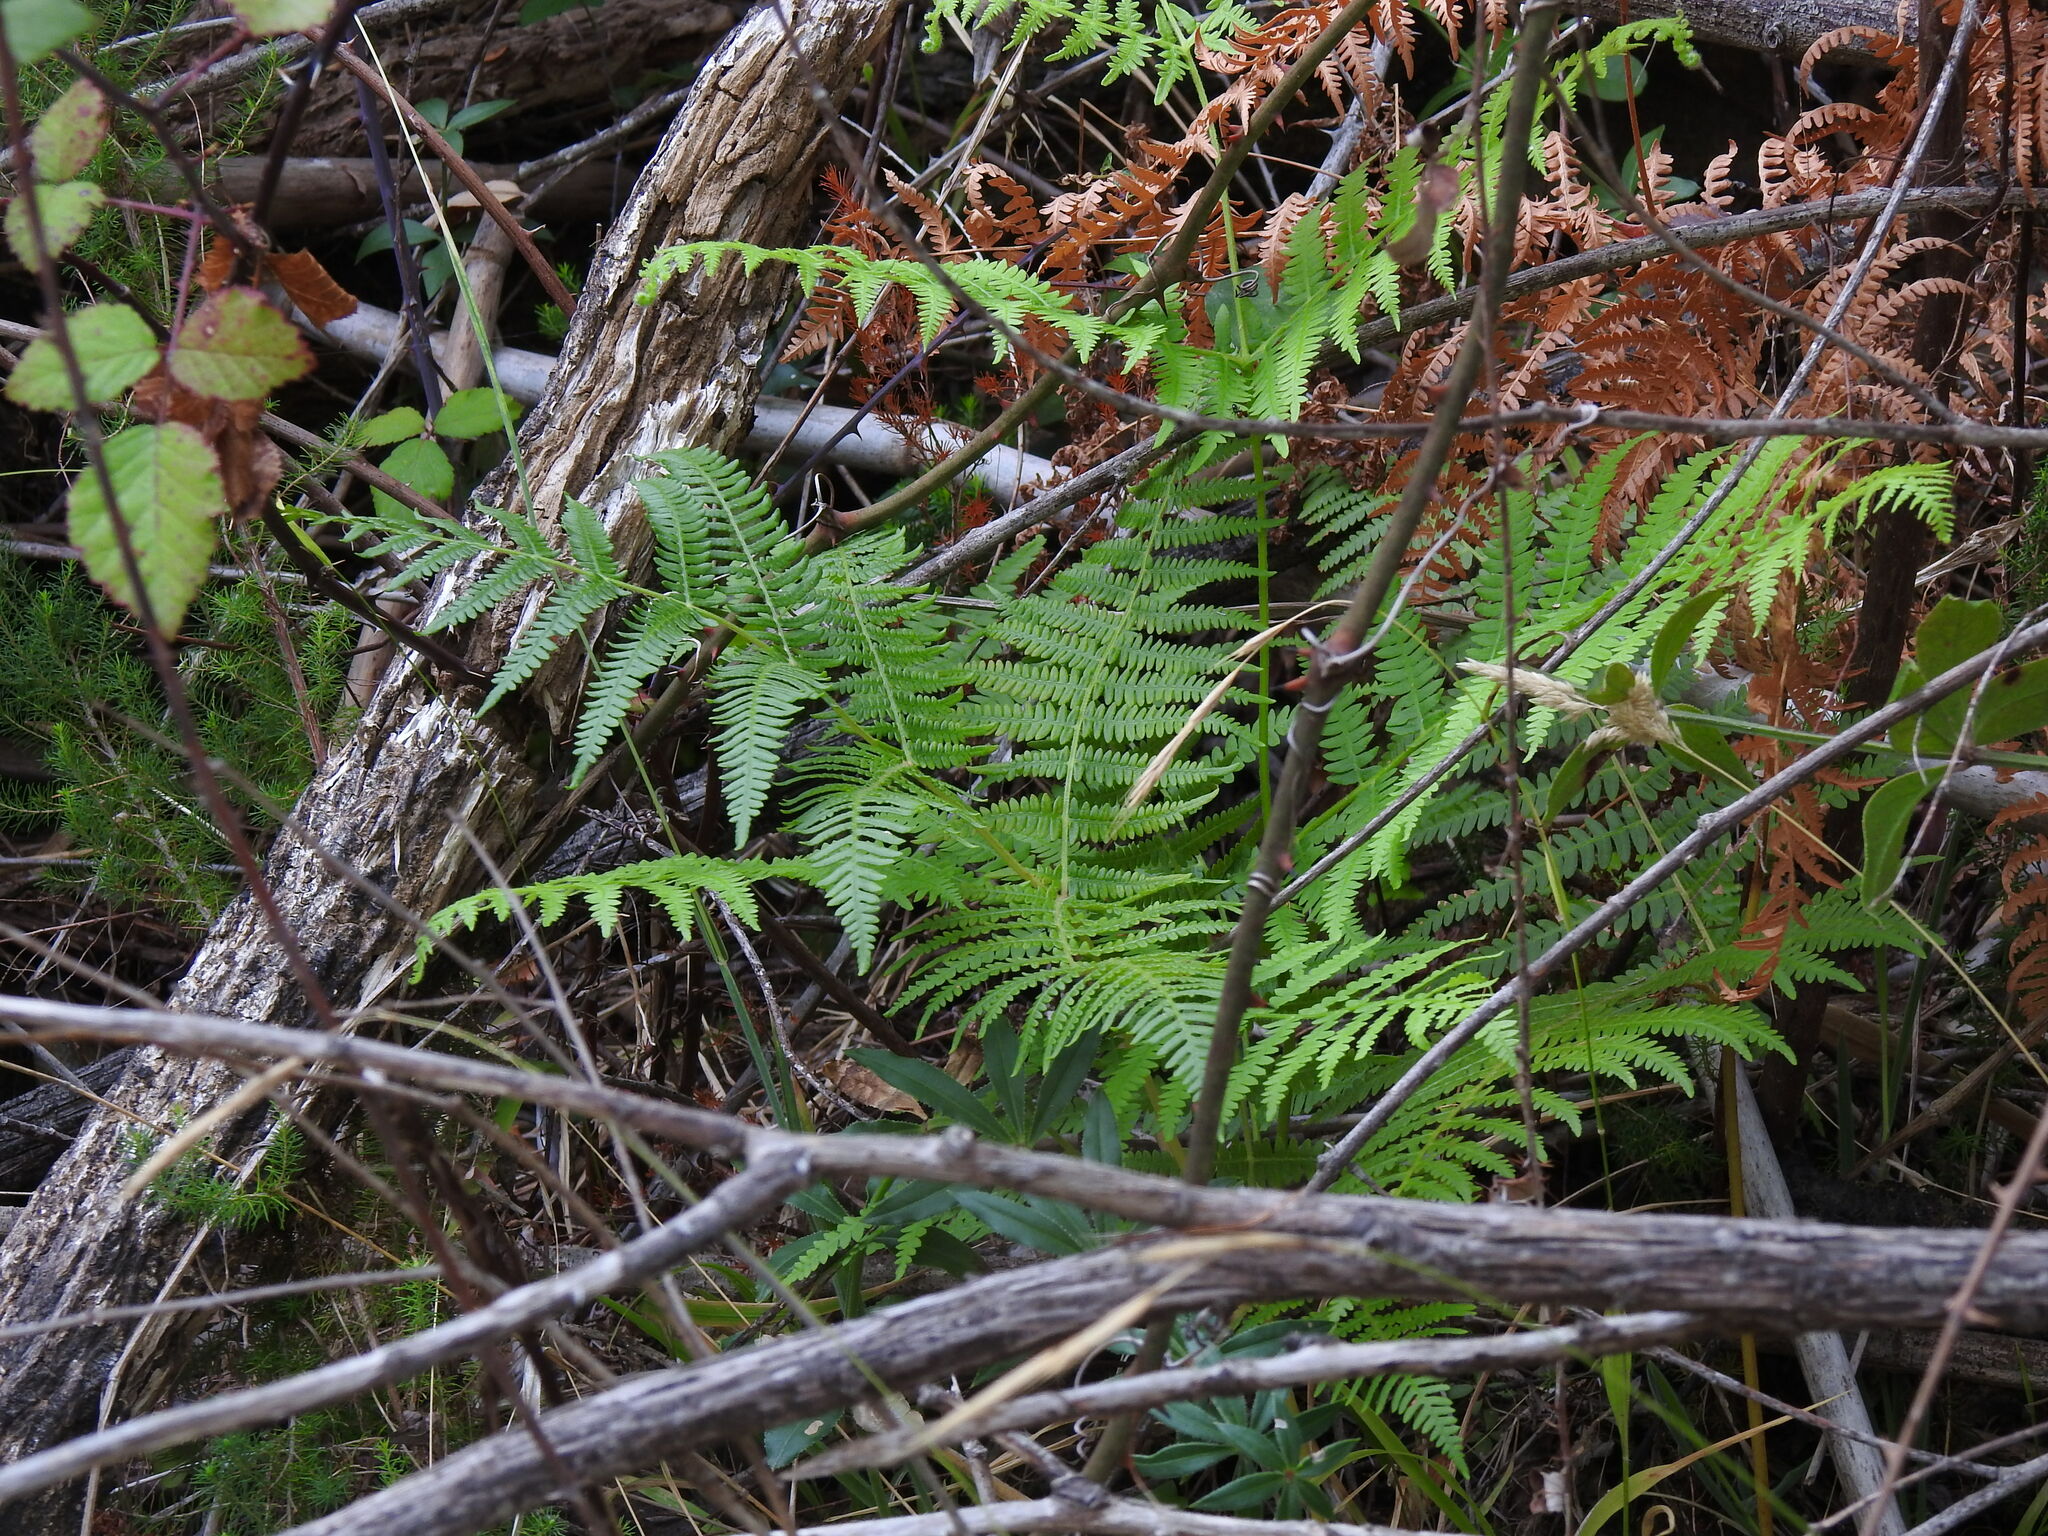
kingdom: Plantae
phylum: Tracheophyta
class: Polypodiopsida
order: Polypodiales
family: Dennstaedtiaceae
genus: Pteridium
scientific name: Pteridium aquilinum
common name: Bracken
